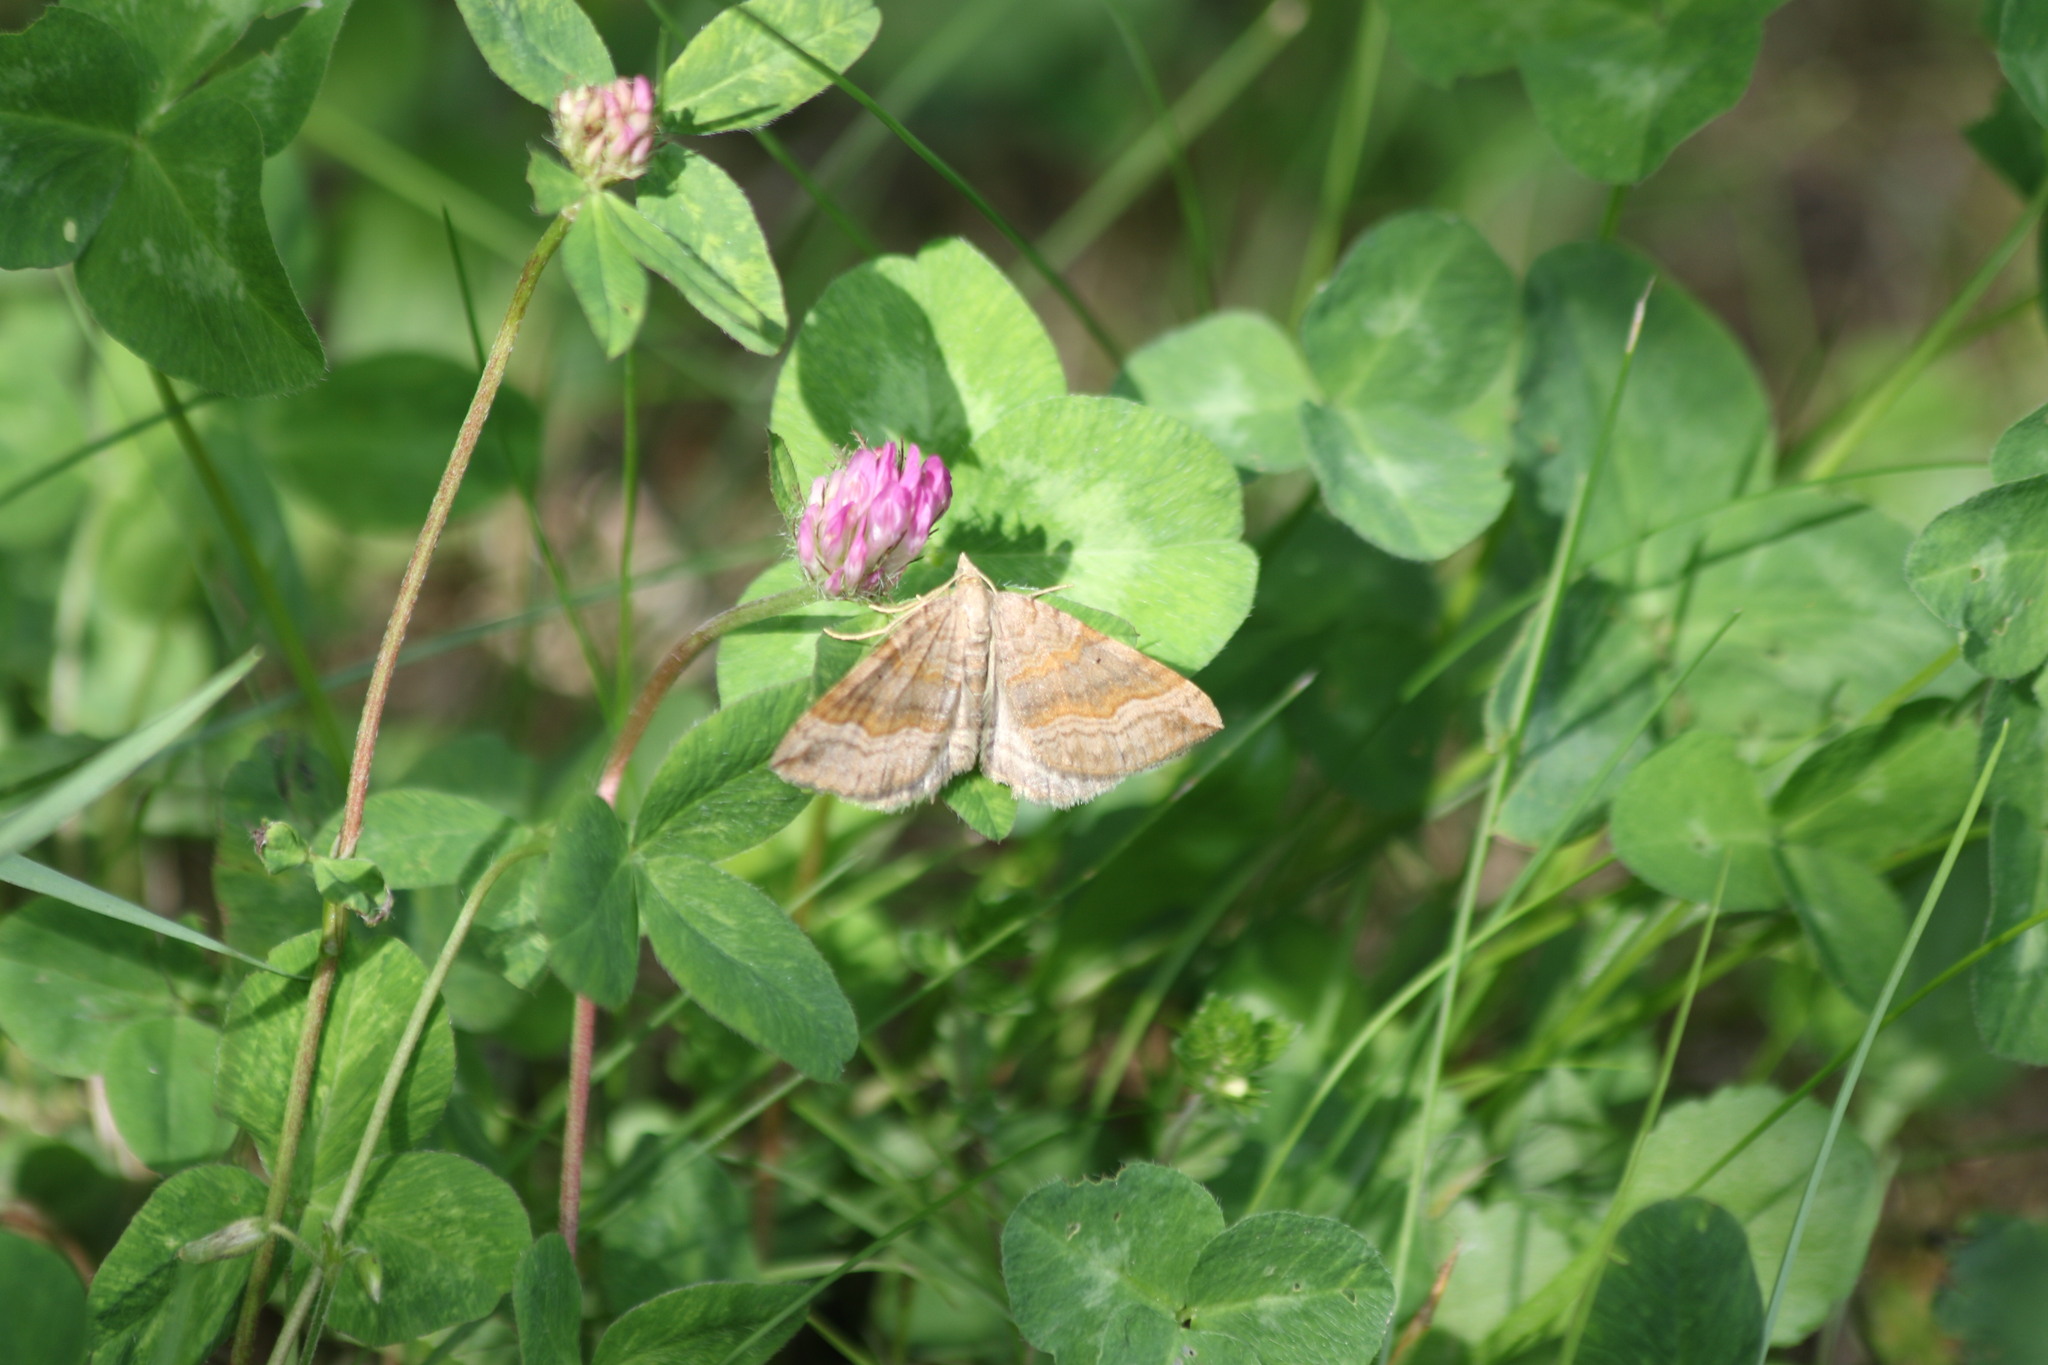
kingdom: Animalia
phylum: Arthropoda
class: Insecta
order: Lepidoptera
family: Geometridae
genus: Scotopteryx
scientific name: Scotopteryx chenopodiata
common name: Shaded broad-bar
